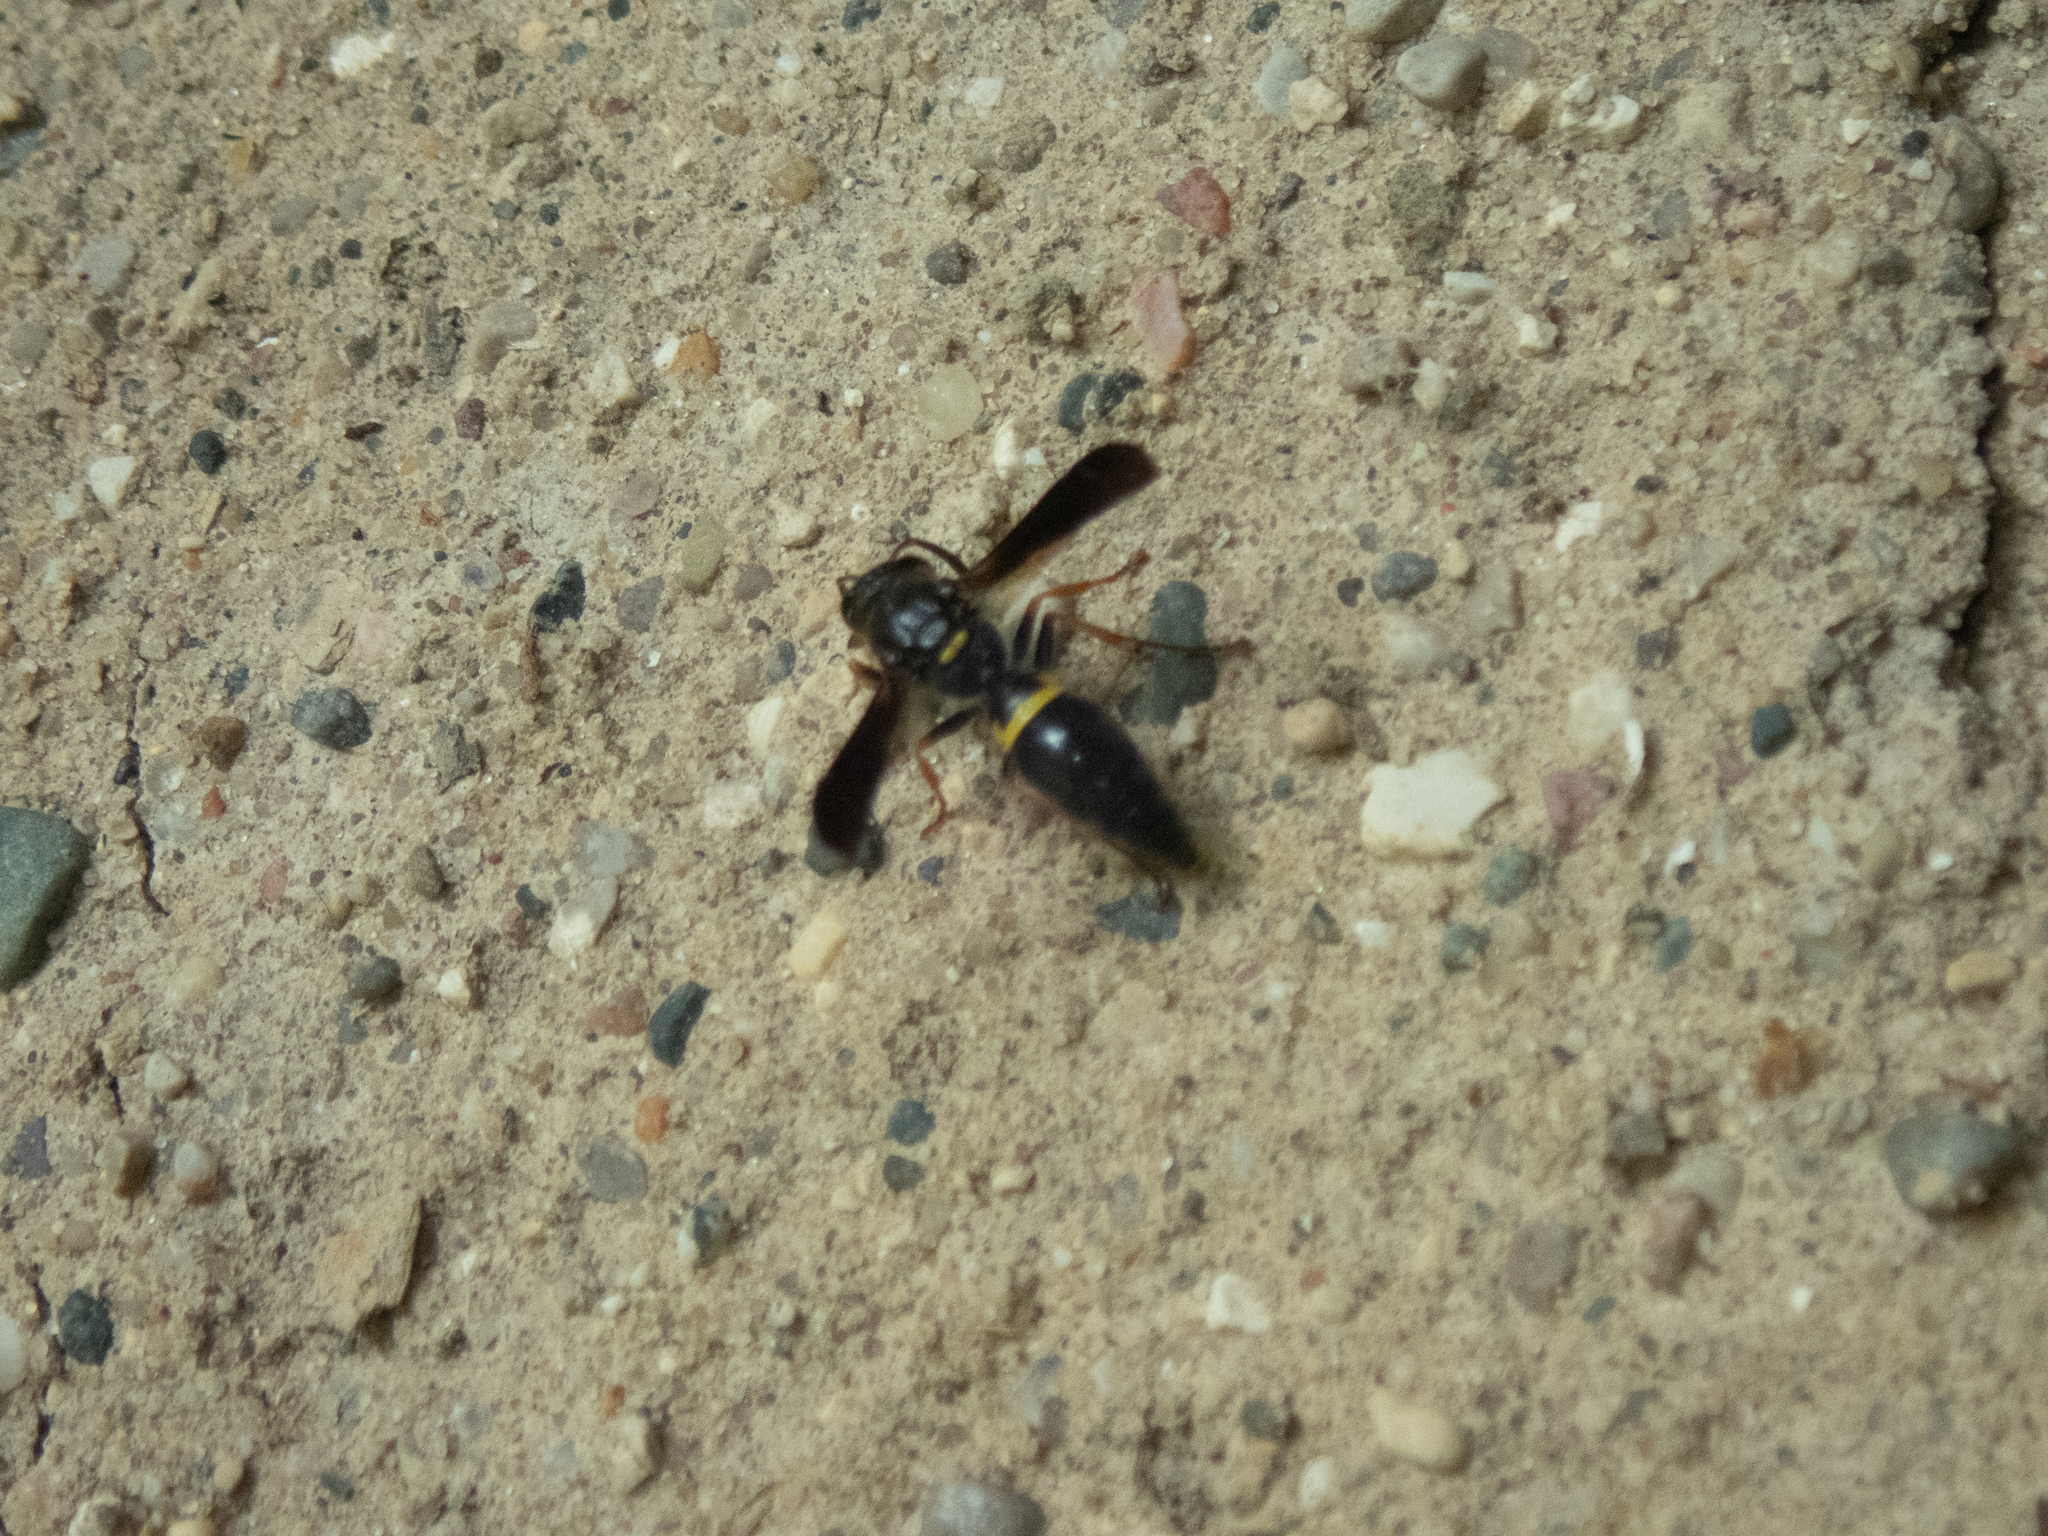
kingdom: Animalia
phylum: Arthropoda
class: Insecta
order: Hymenoptera
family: Vespidae
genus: Ancistrocerus
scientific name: Ancistrocerus unifasciatus
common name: One-banded mason wasp
